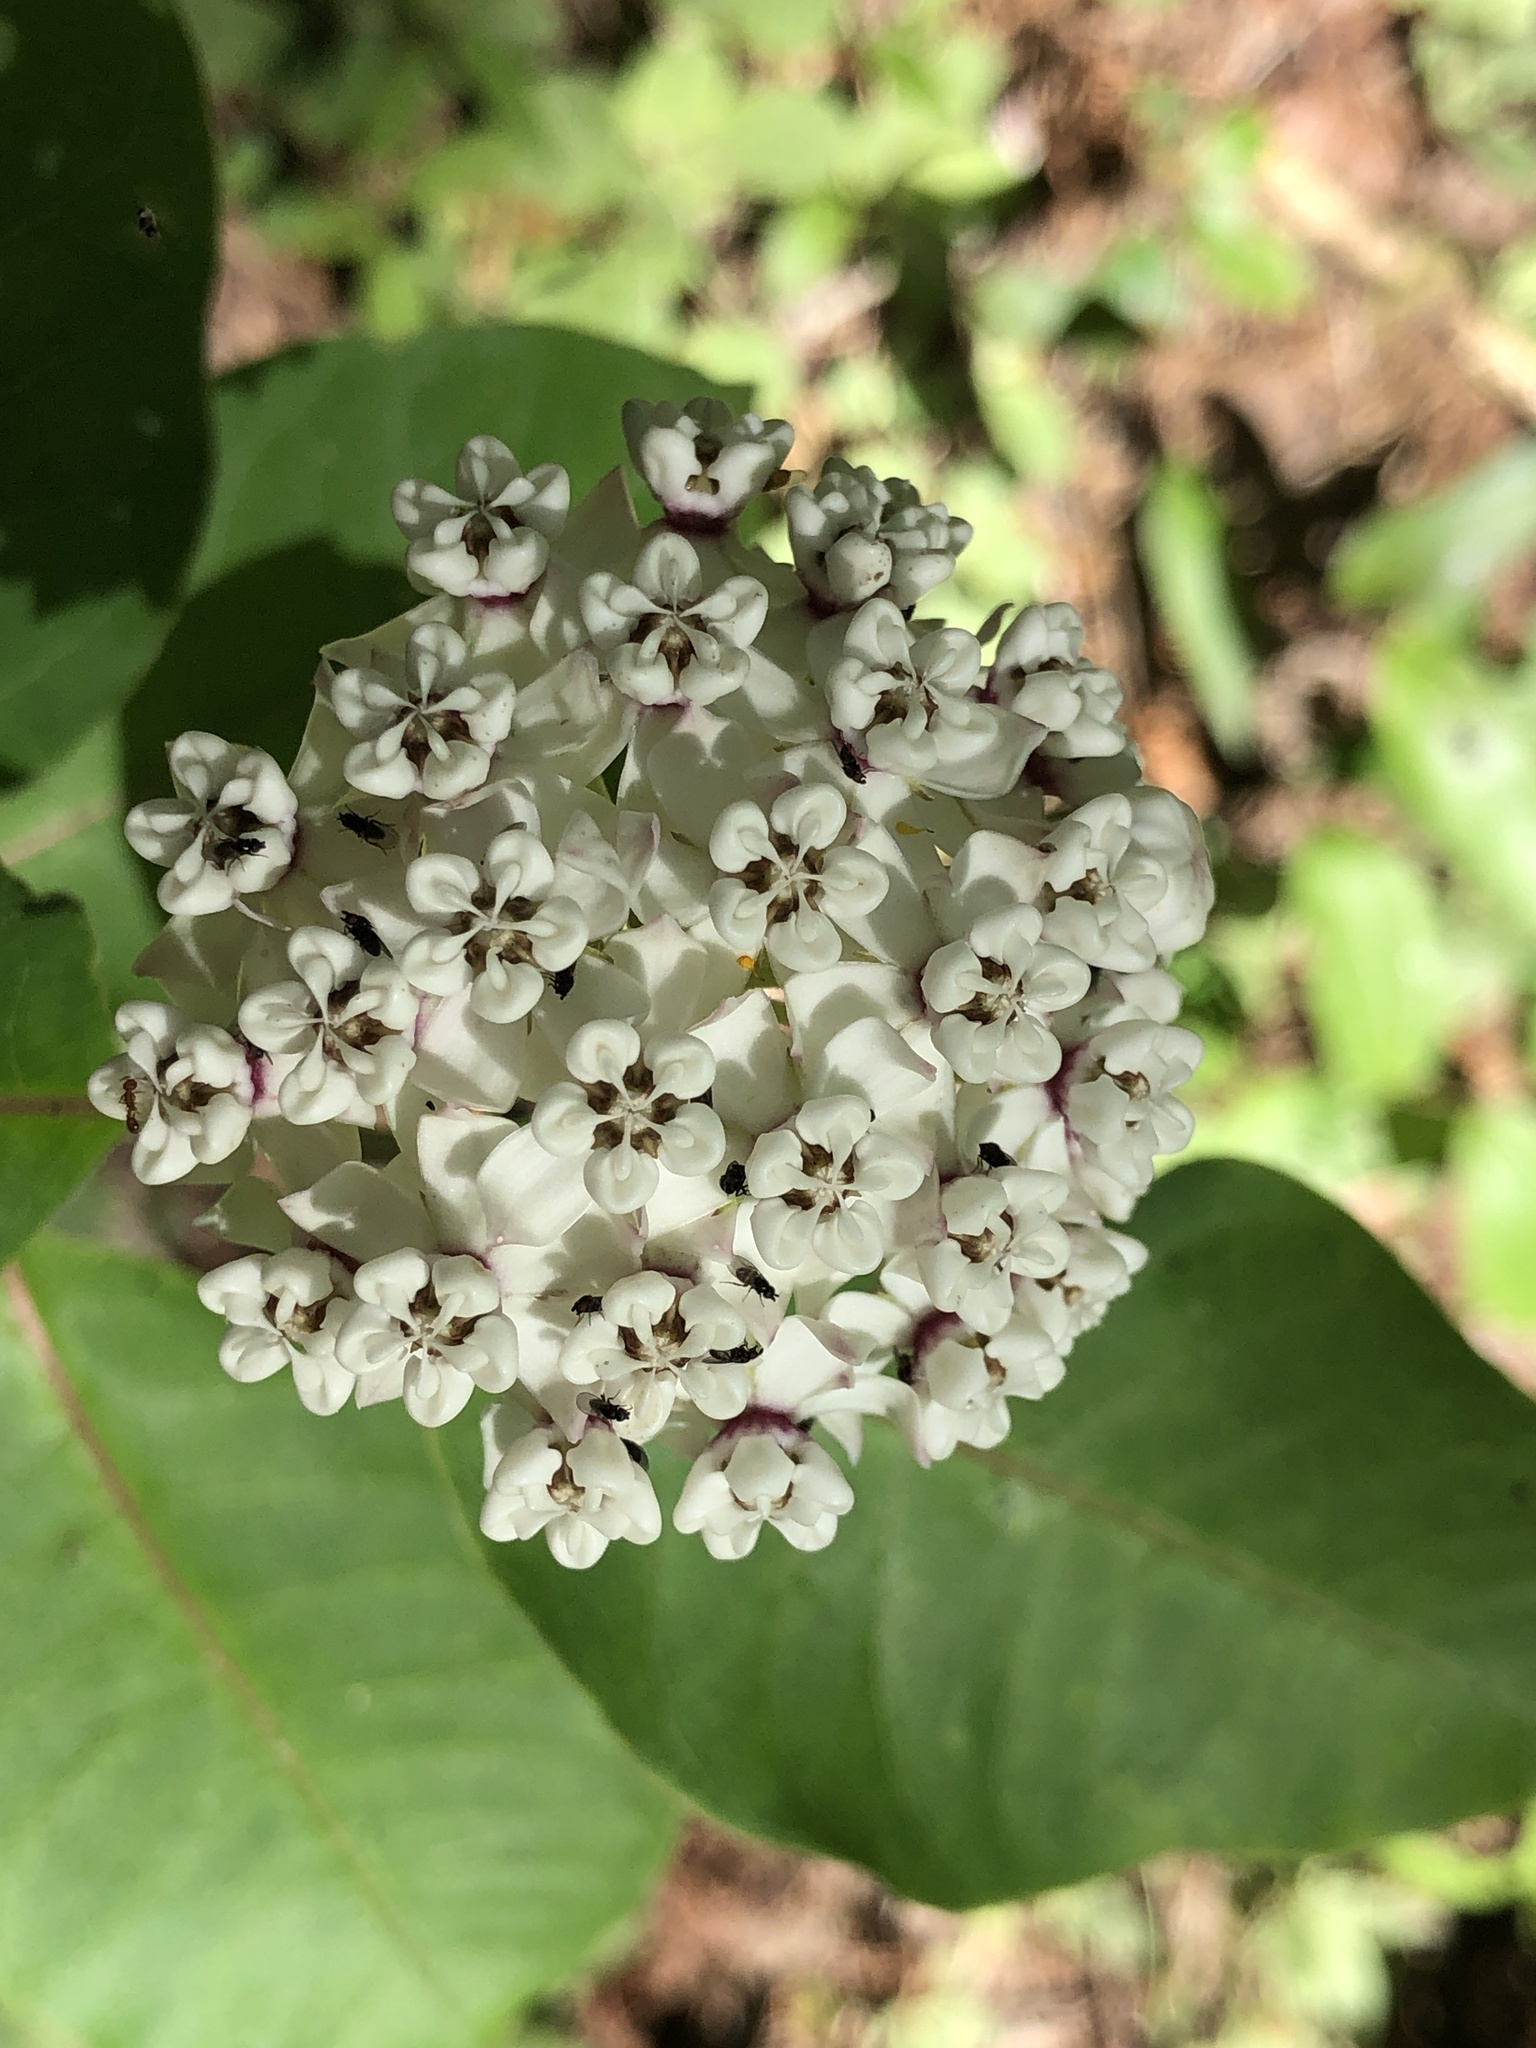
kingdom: Plantae
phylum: Tracheophyta
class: Magnoliopsida
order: Gentianales
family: Apocynaceae
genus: Asclepias
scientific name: Asclepias variegata
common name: Variegated milkweed
